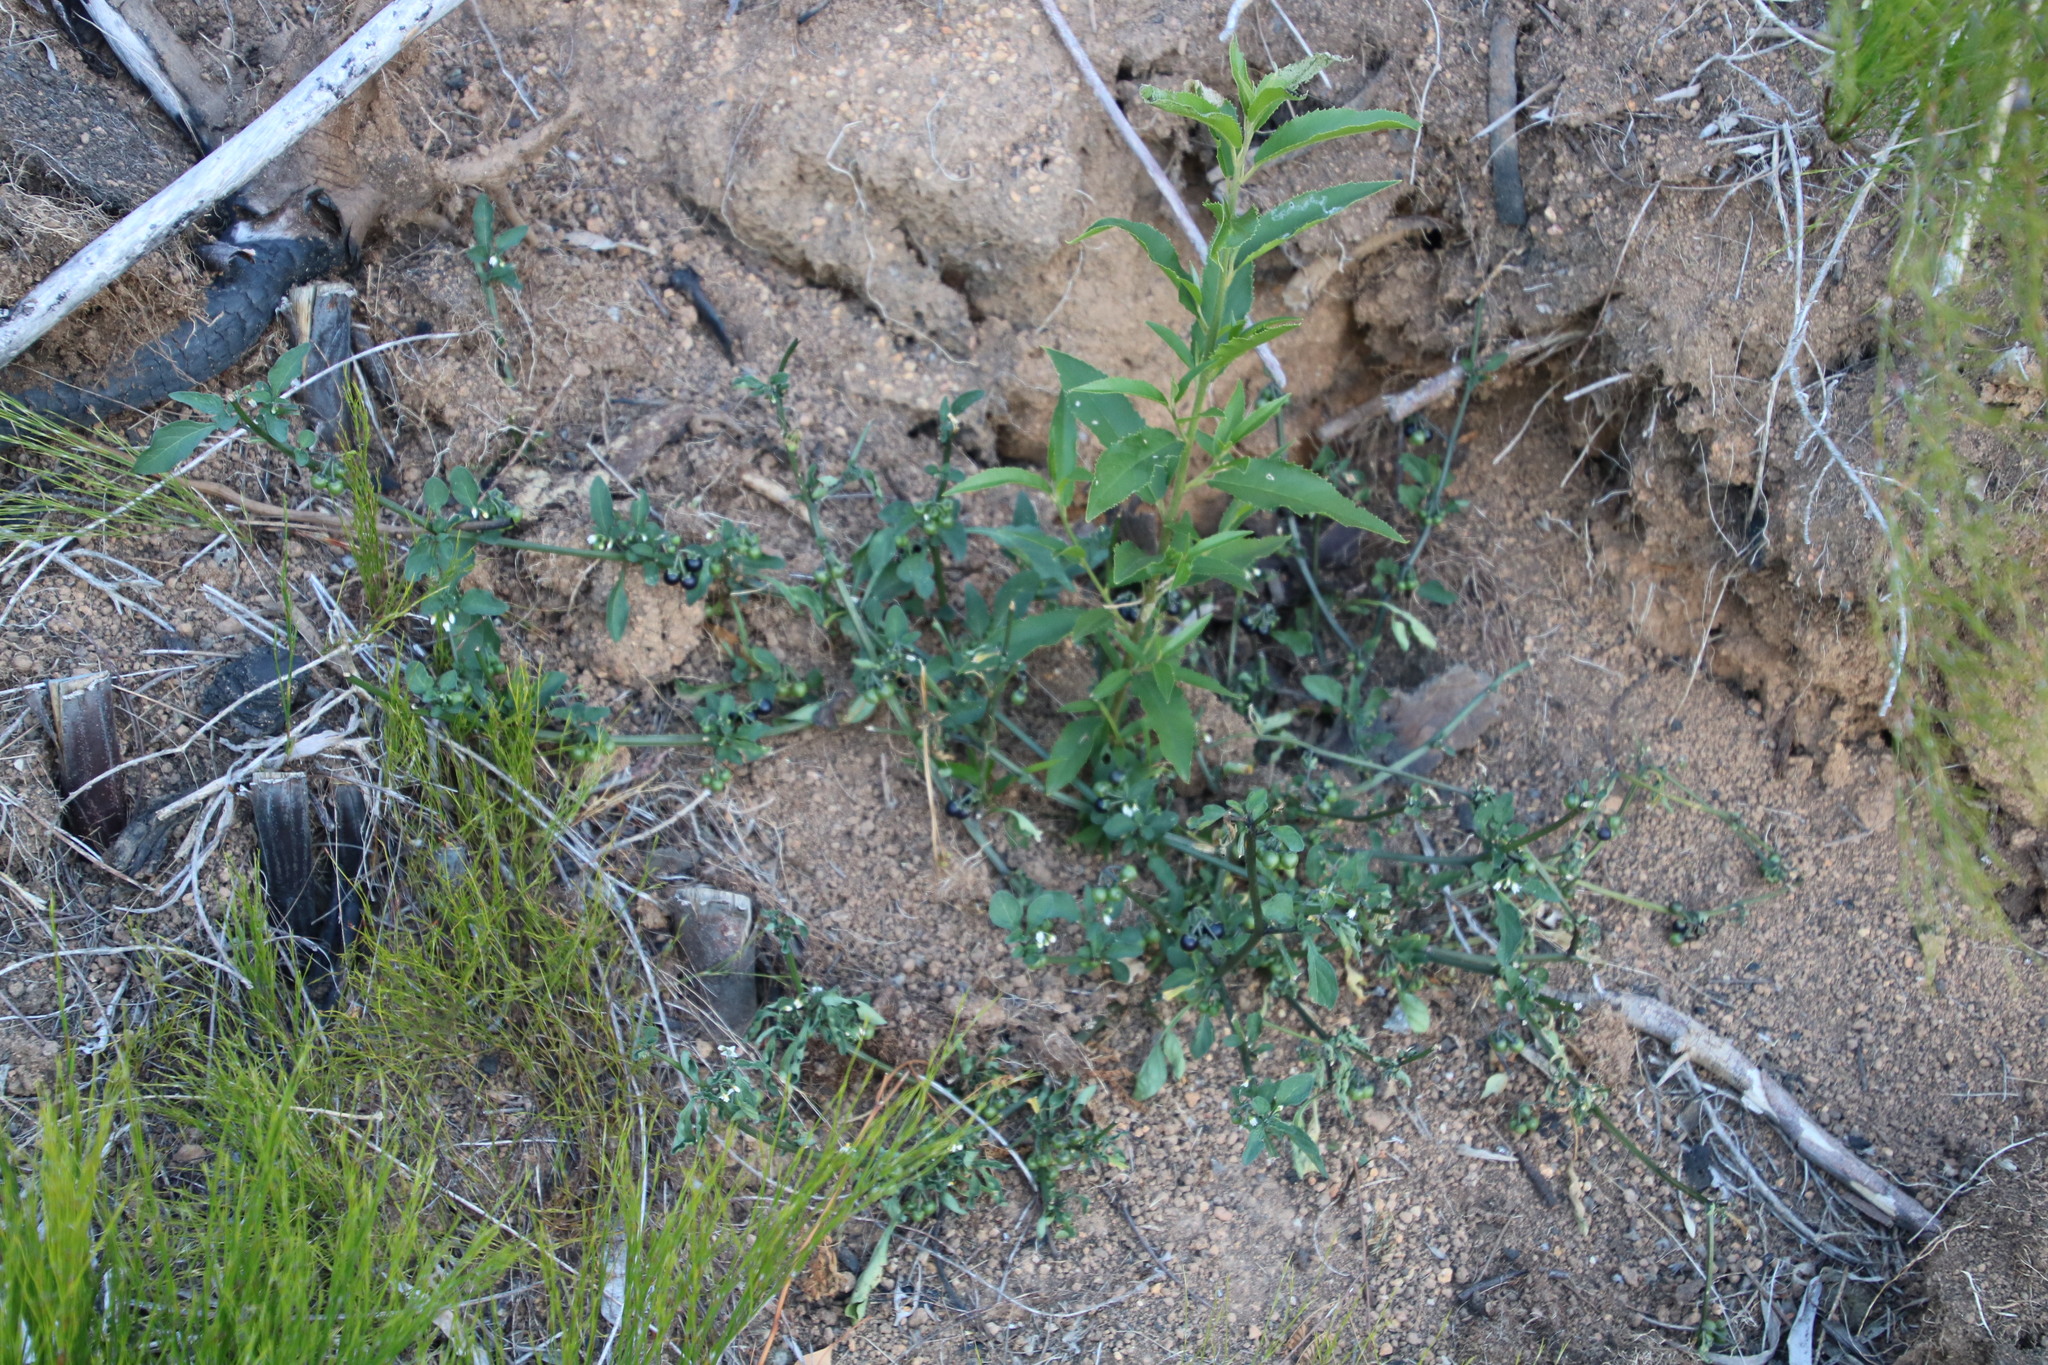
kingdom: Plantae
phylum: Tracheophyta
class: Magnoliopsida
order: Solanales
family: Solanaceae
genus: Solanum
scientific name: Solanum nigrum
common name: Black nightshade
